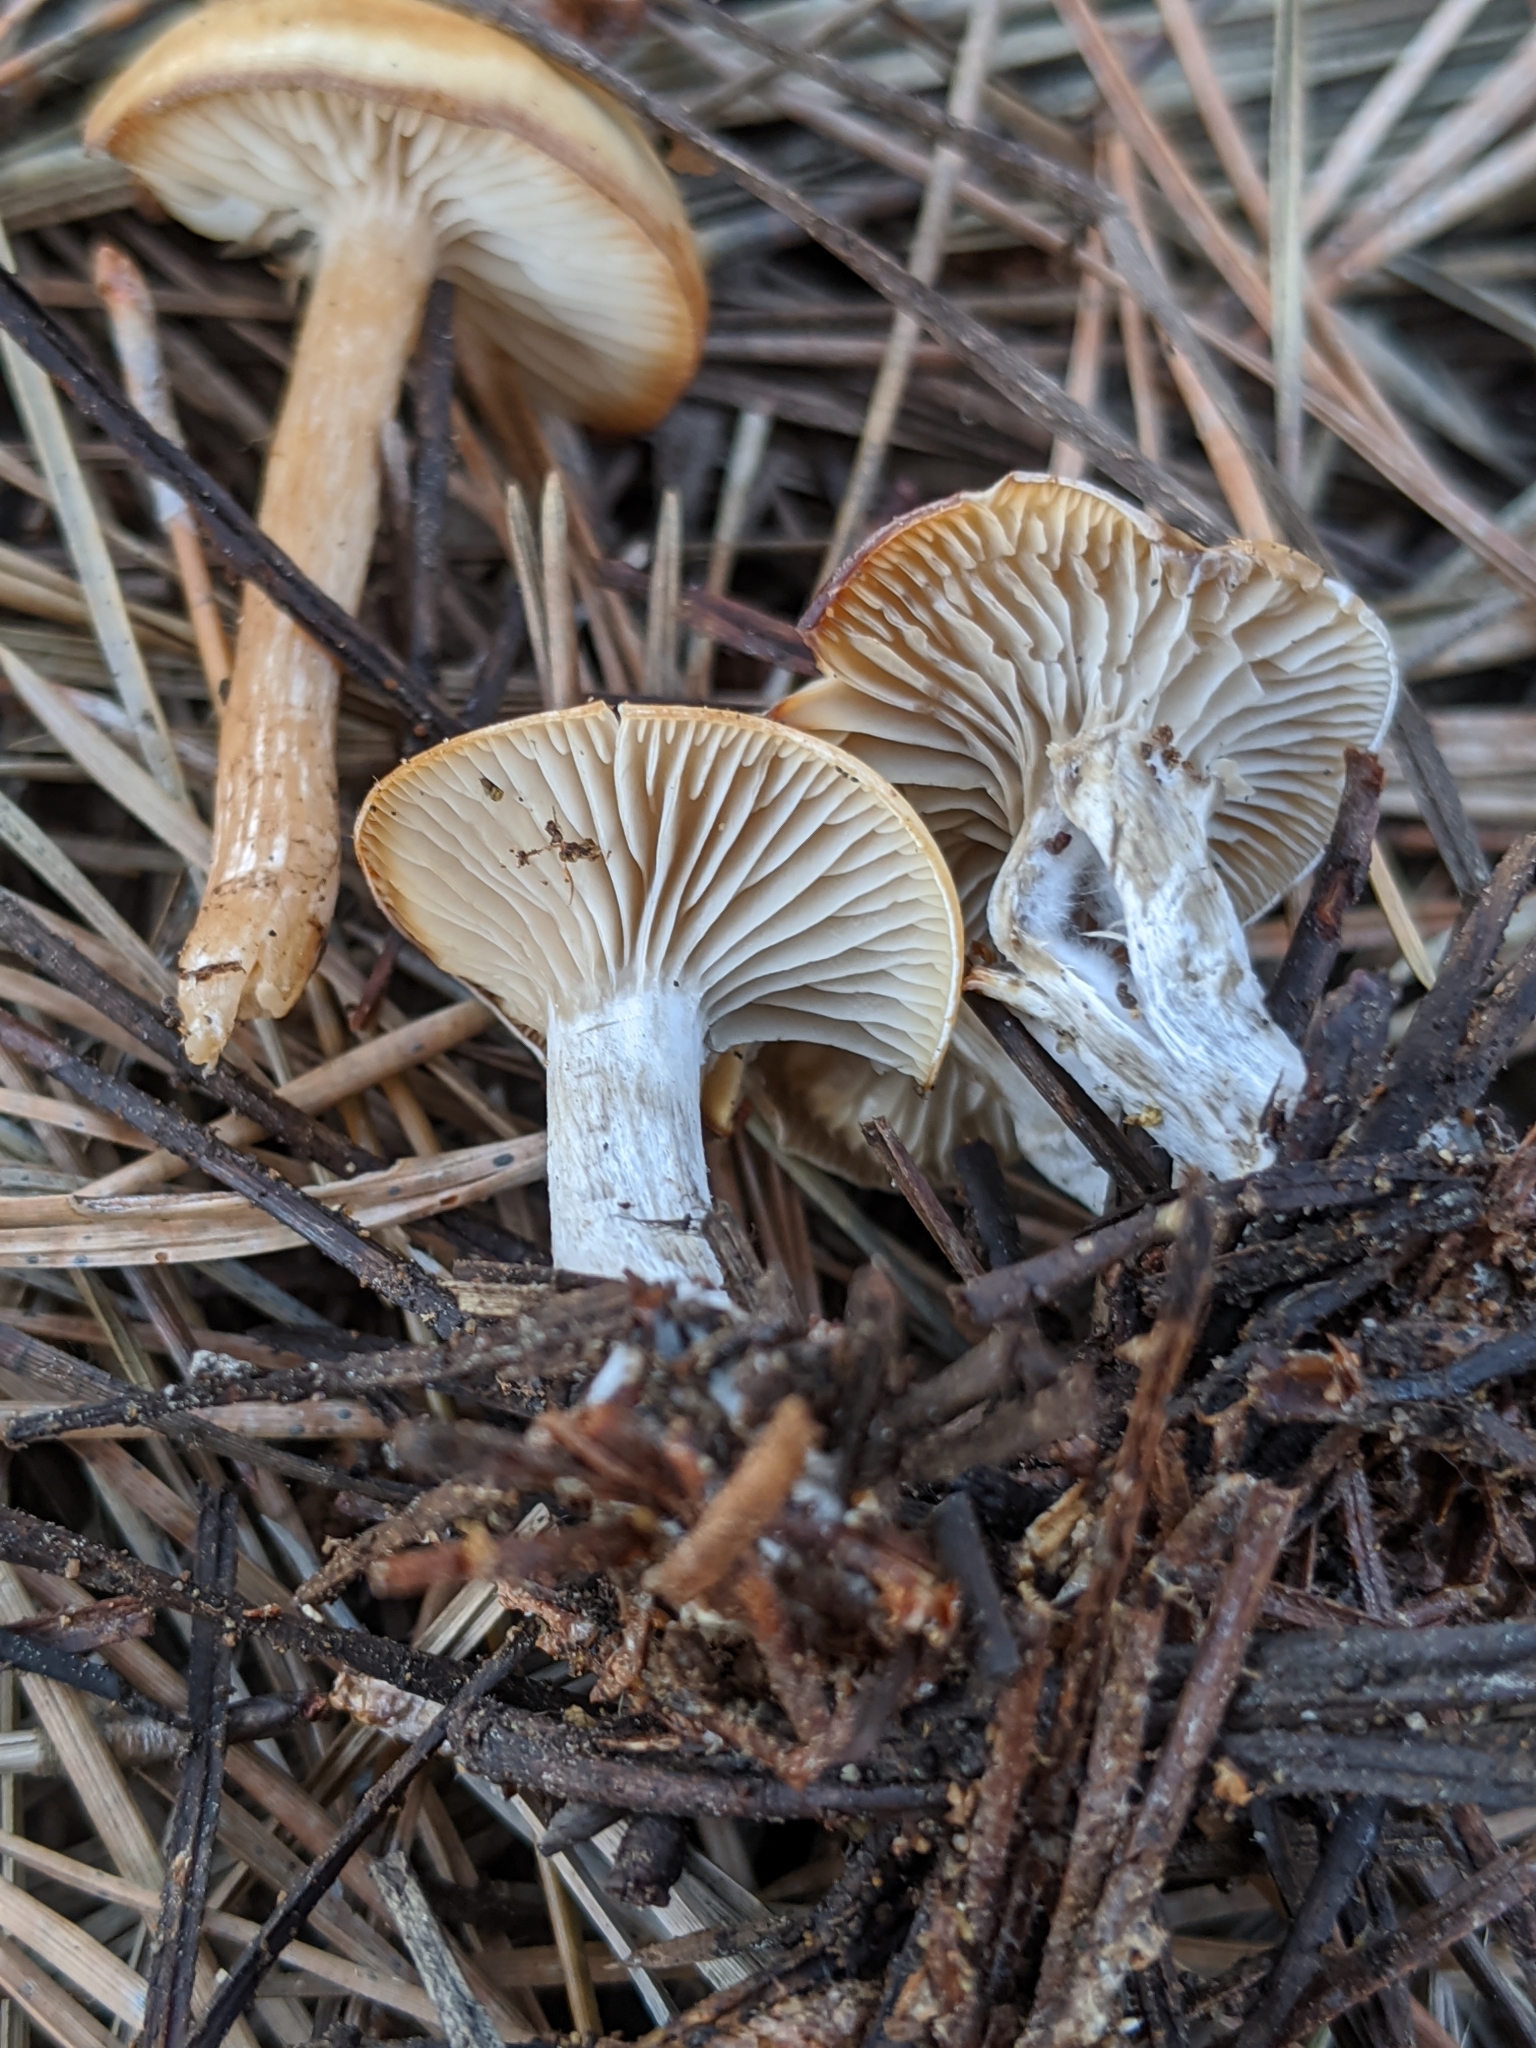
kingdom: Fungi
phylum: Basidiomycota
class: Agaricomycetes
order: Agaricales
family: Tricholomataceae
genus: Clitocybe
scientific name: Clitocybe fragrans
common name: Fragrant funnel
